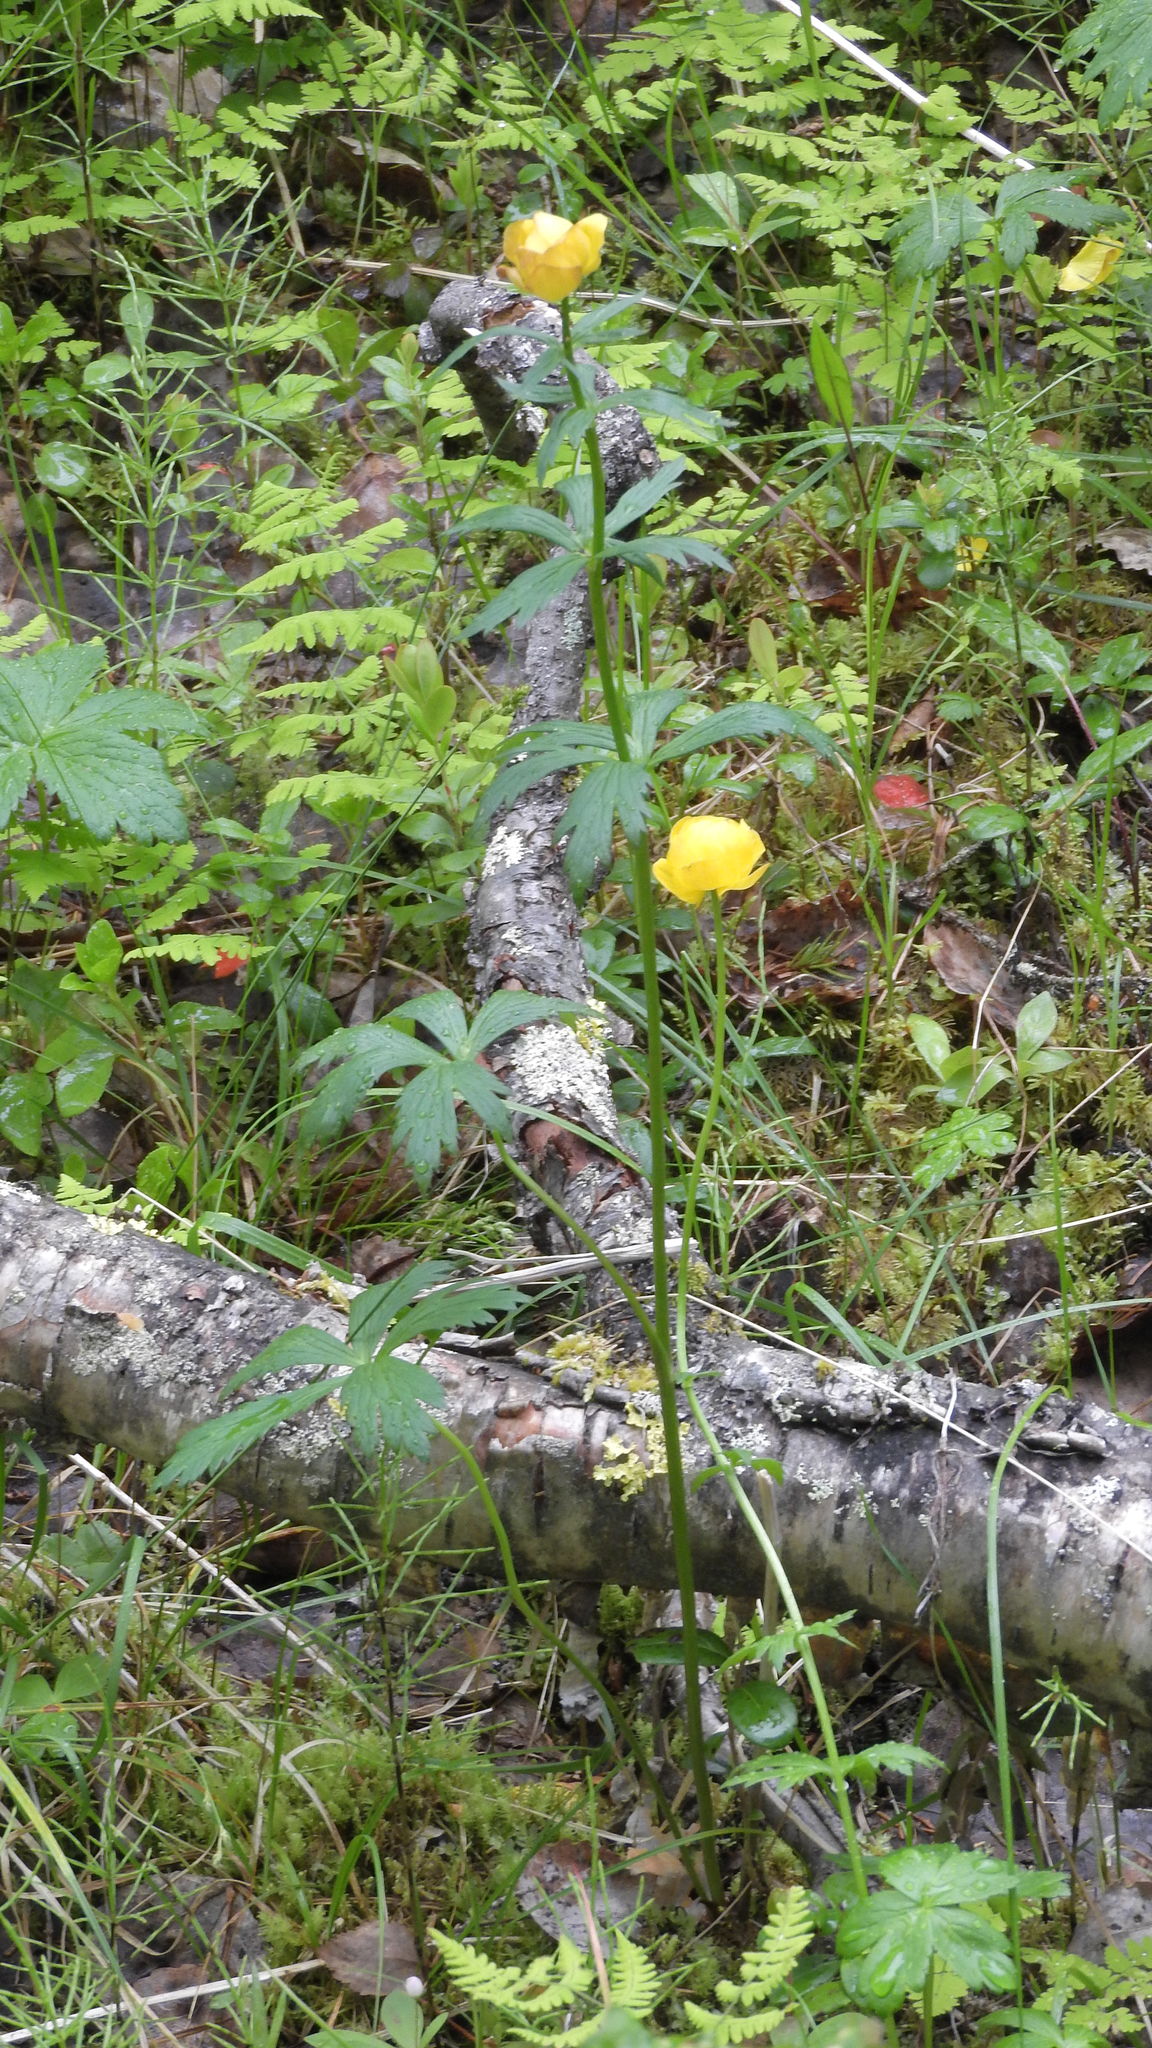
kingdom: Plantae
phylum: Tracheophyta
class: Magnoliopsida
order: Ranunculales
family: Ranunculaceae
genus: Trollius
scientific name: Trollius europaeus
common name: European globeflower
